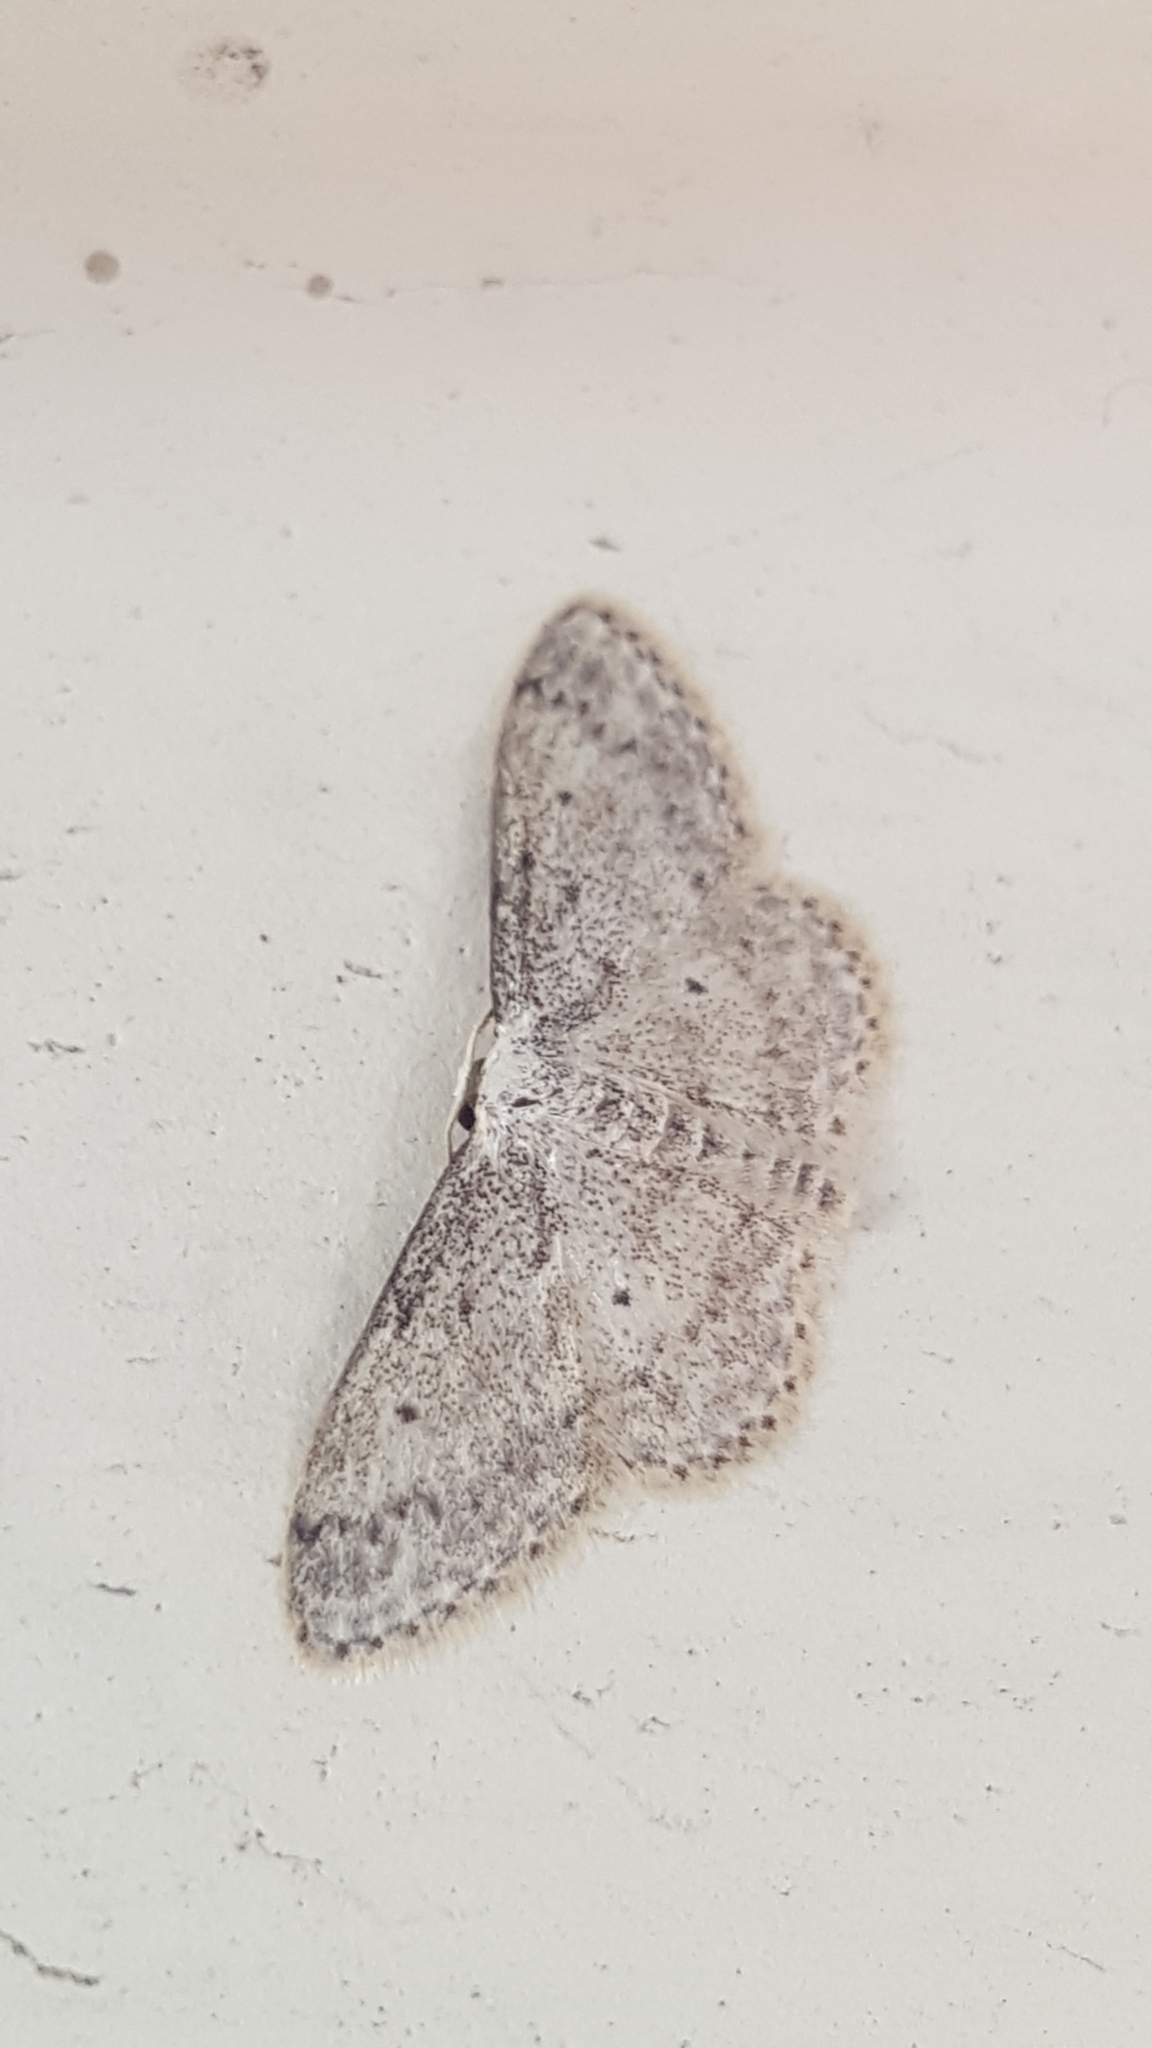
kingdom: Animalia
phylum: Arthropoda
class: Insecta
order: Lepidoptera
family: Geometridae
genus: Idaea
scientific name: Idaea seriata
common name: Small dusty wave
